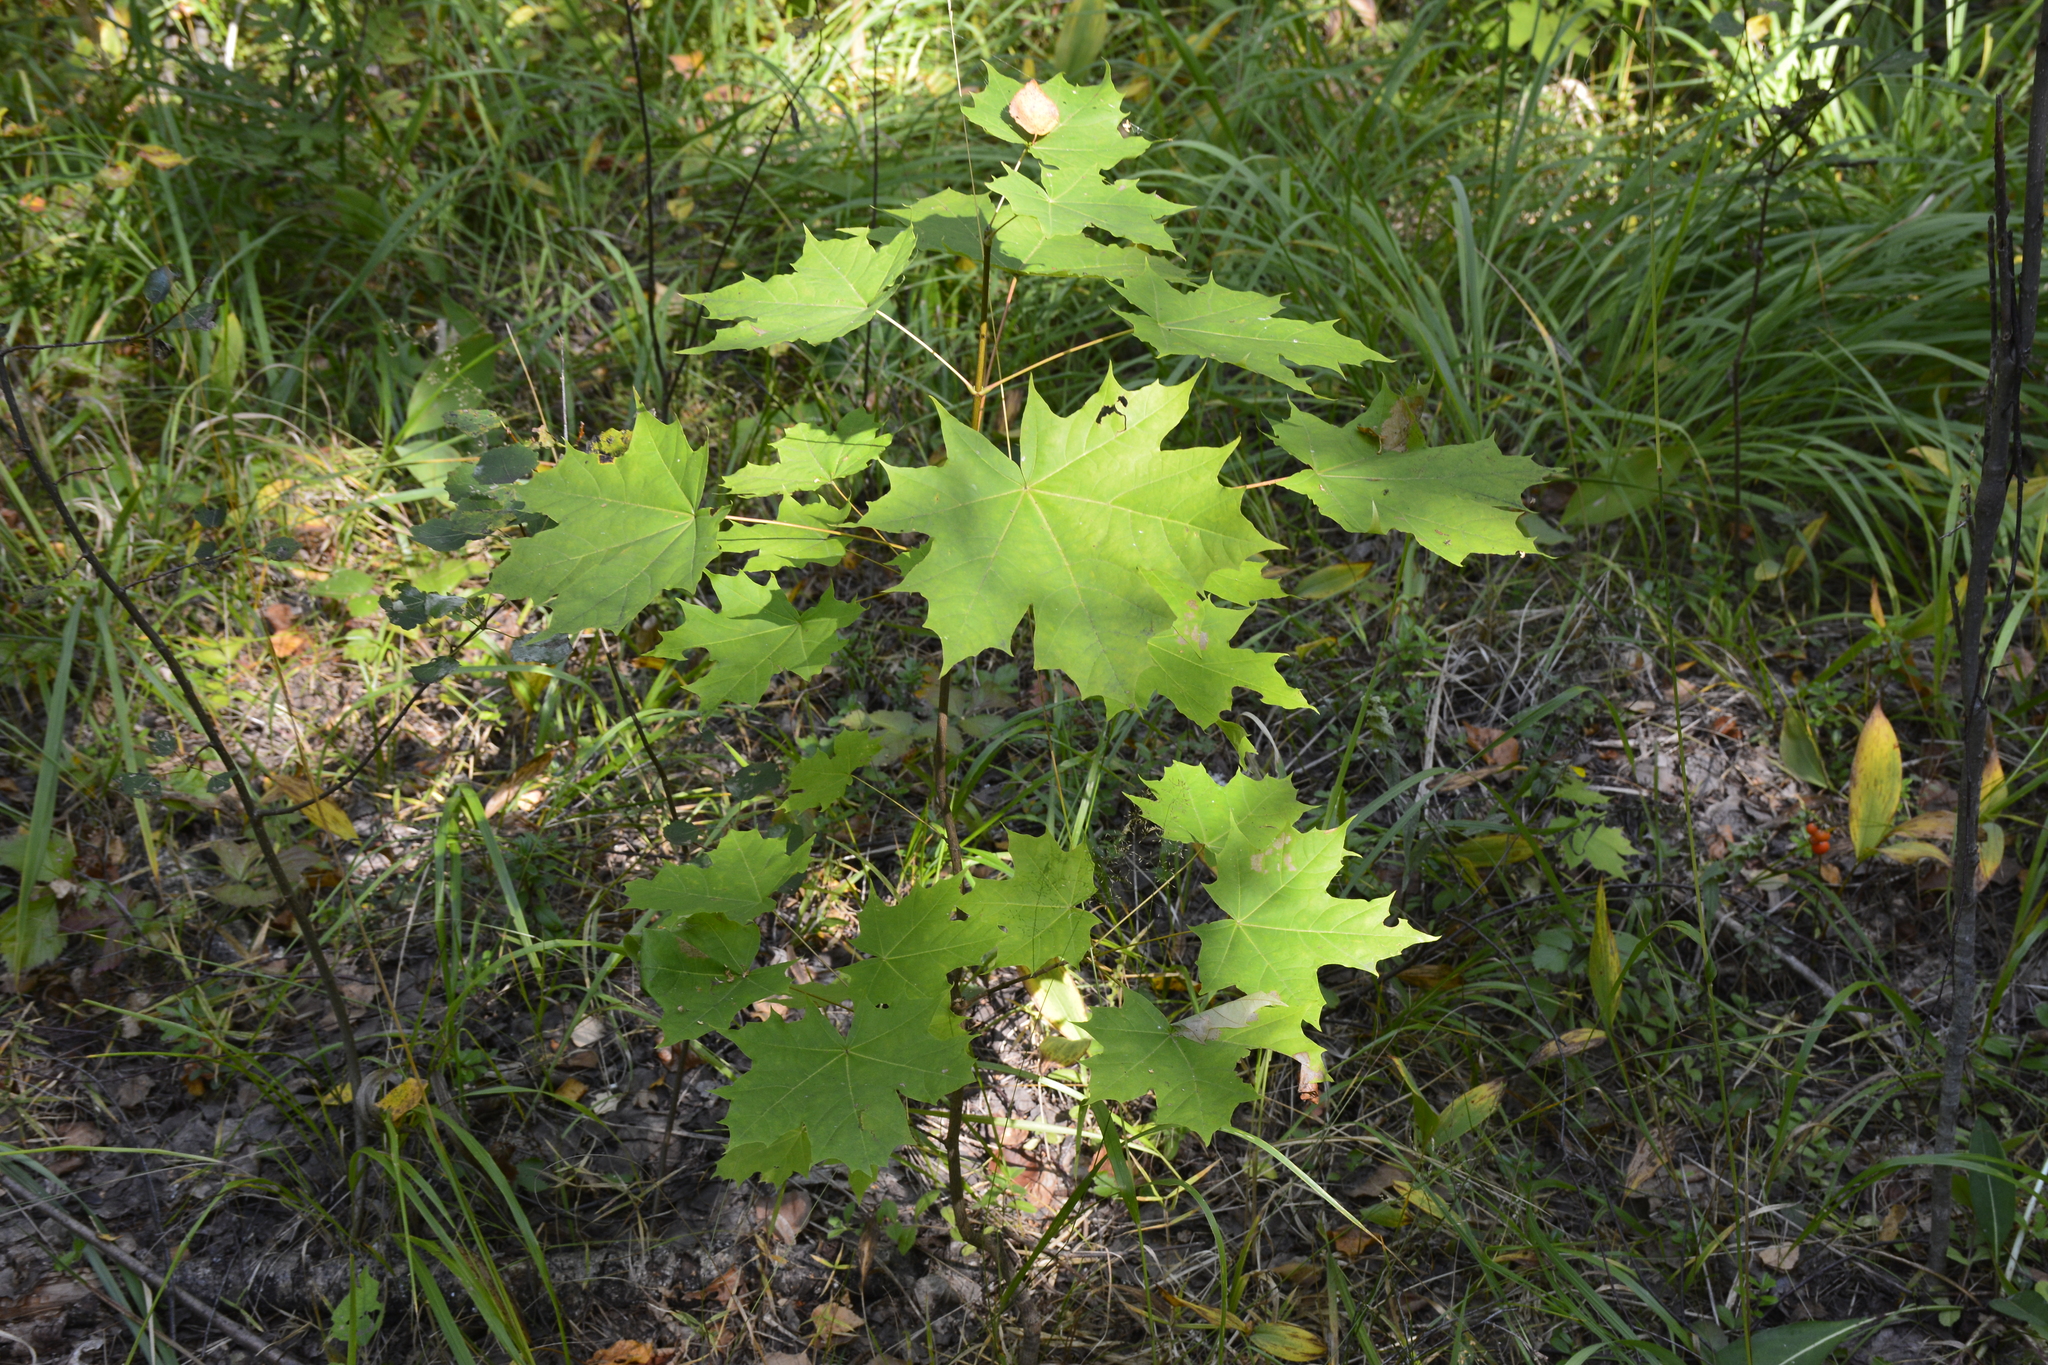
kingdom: Plantae
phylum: Tracheophyta
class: Magnoliopsida
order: Sapindales
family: Sapindaceae
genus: Acer
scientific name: Acer platanoides
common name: Norway maple
